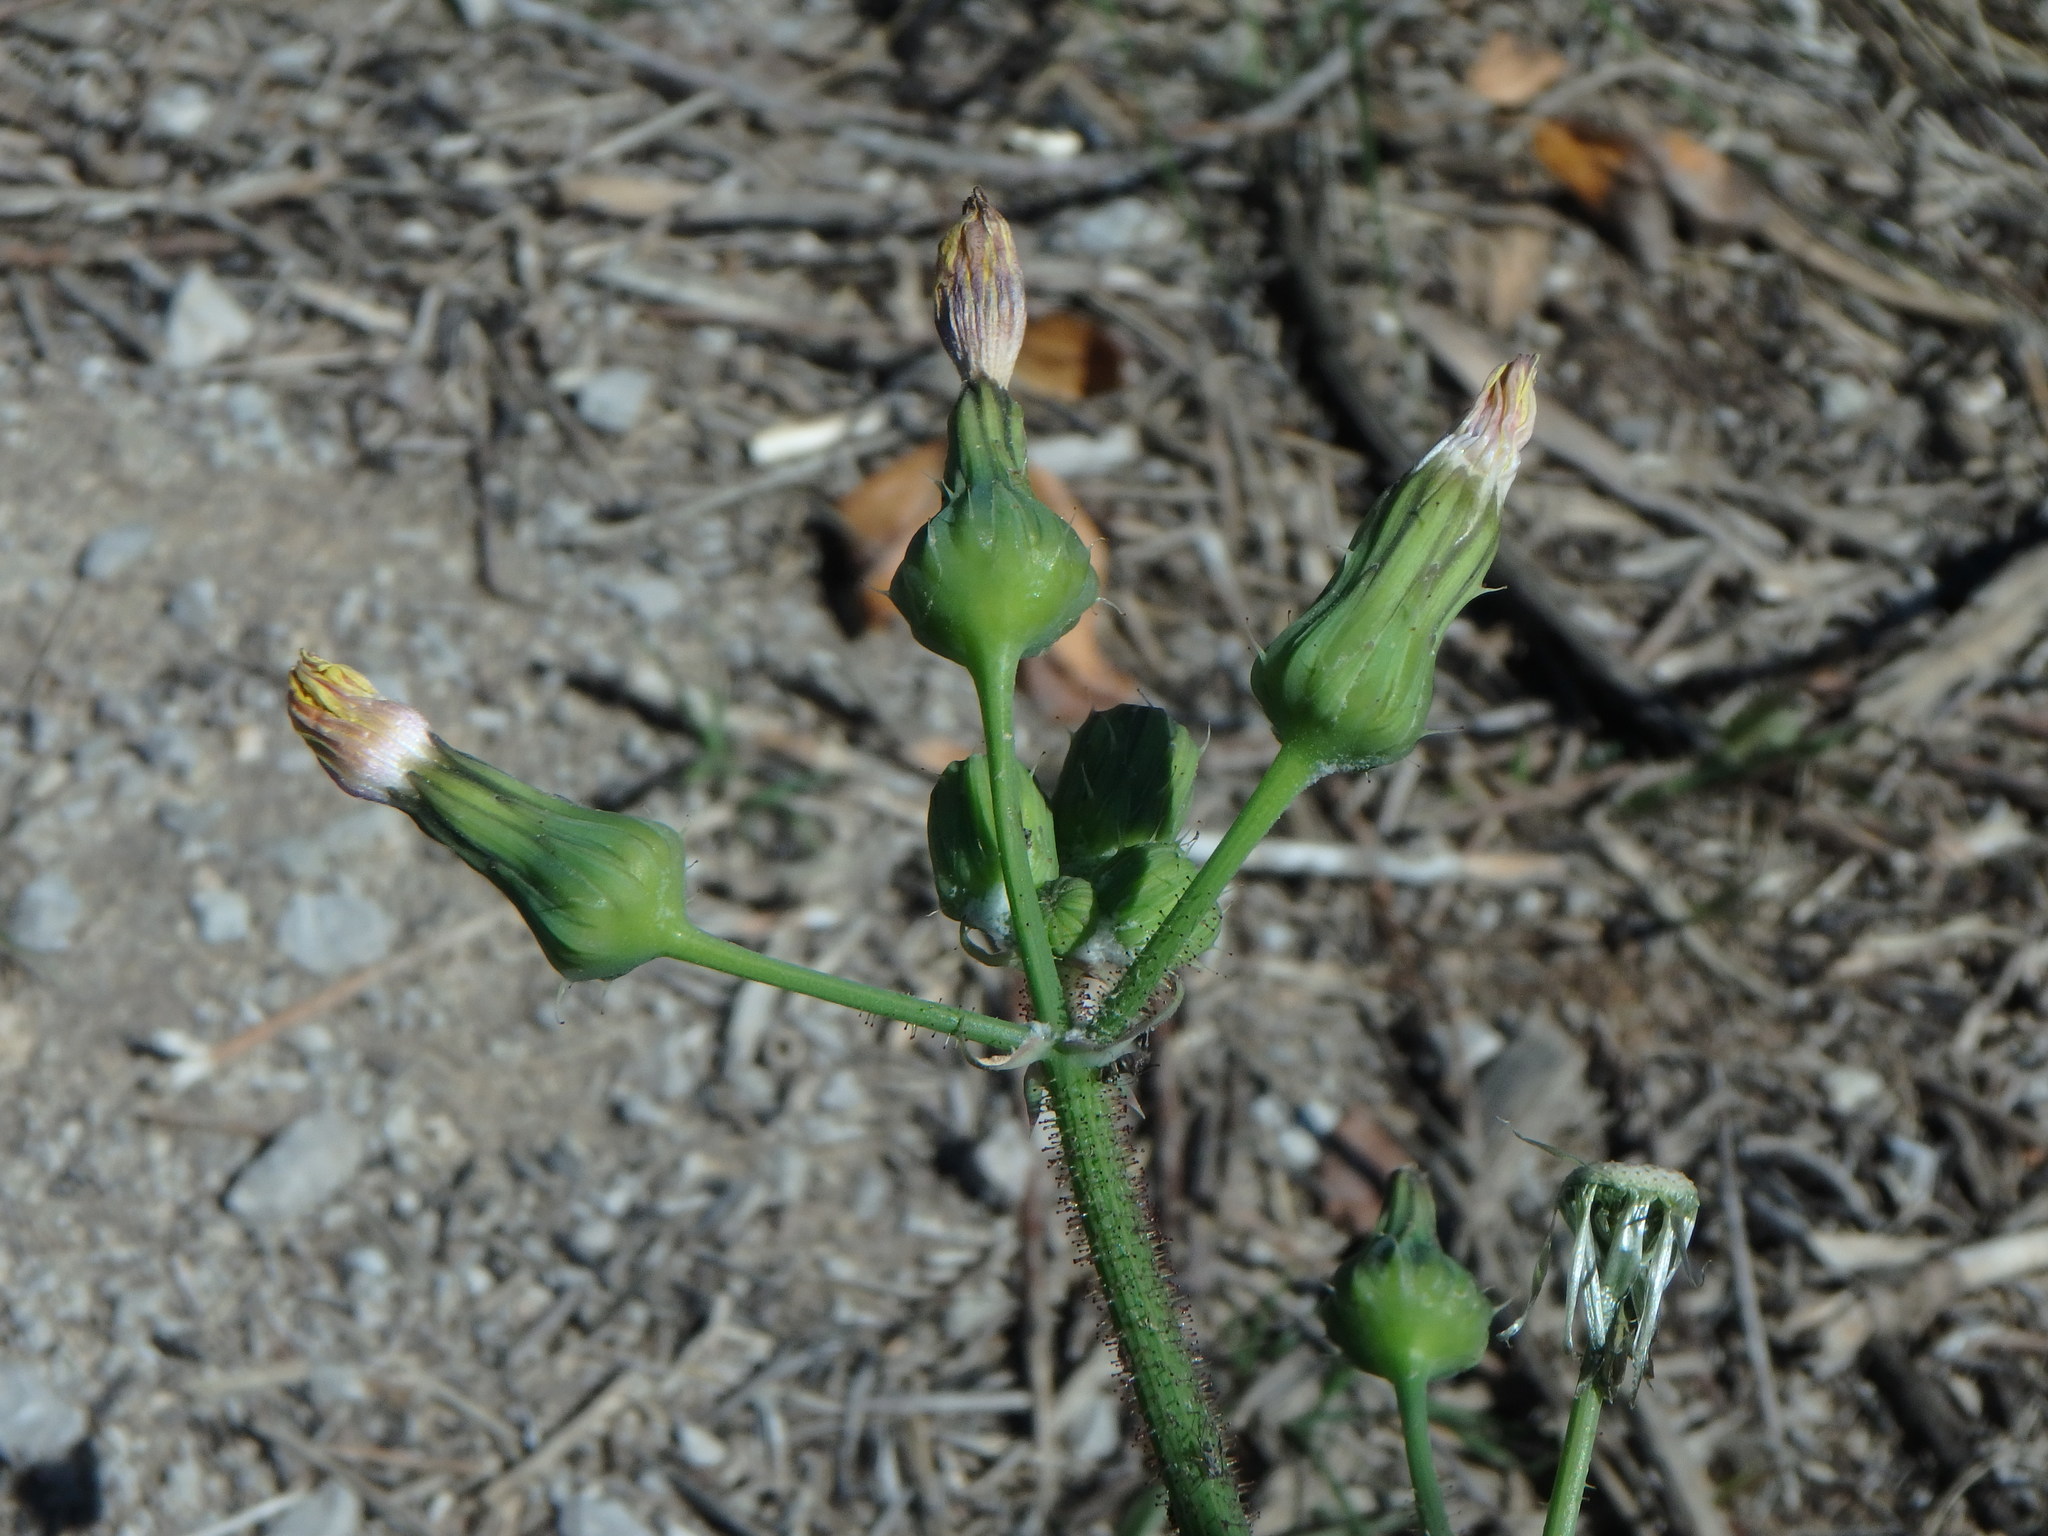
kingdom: Plantae
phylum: Tracheophyta
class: Magnoliopsida
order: Asterales
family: Asteraceae
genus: Sonchus
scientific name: Sonchus oleraceus
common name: Common sowthistle
